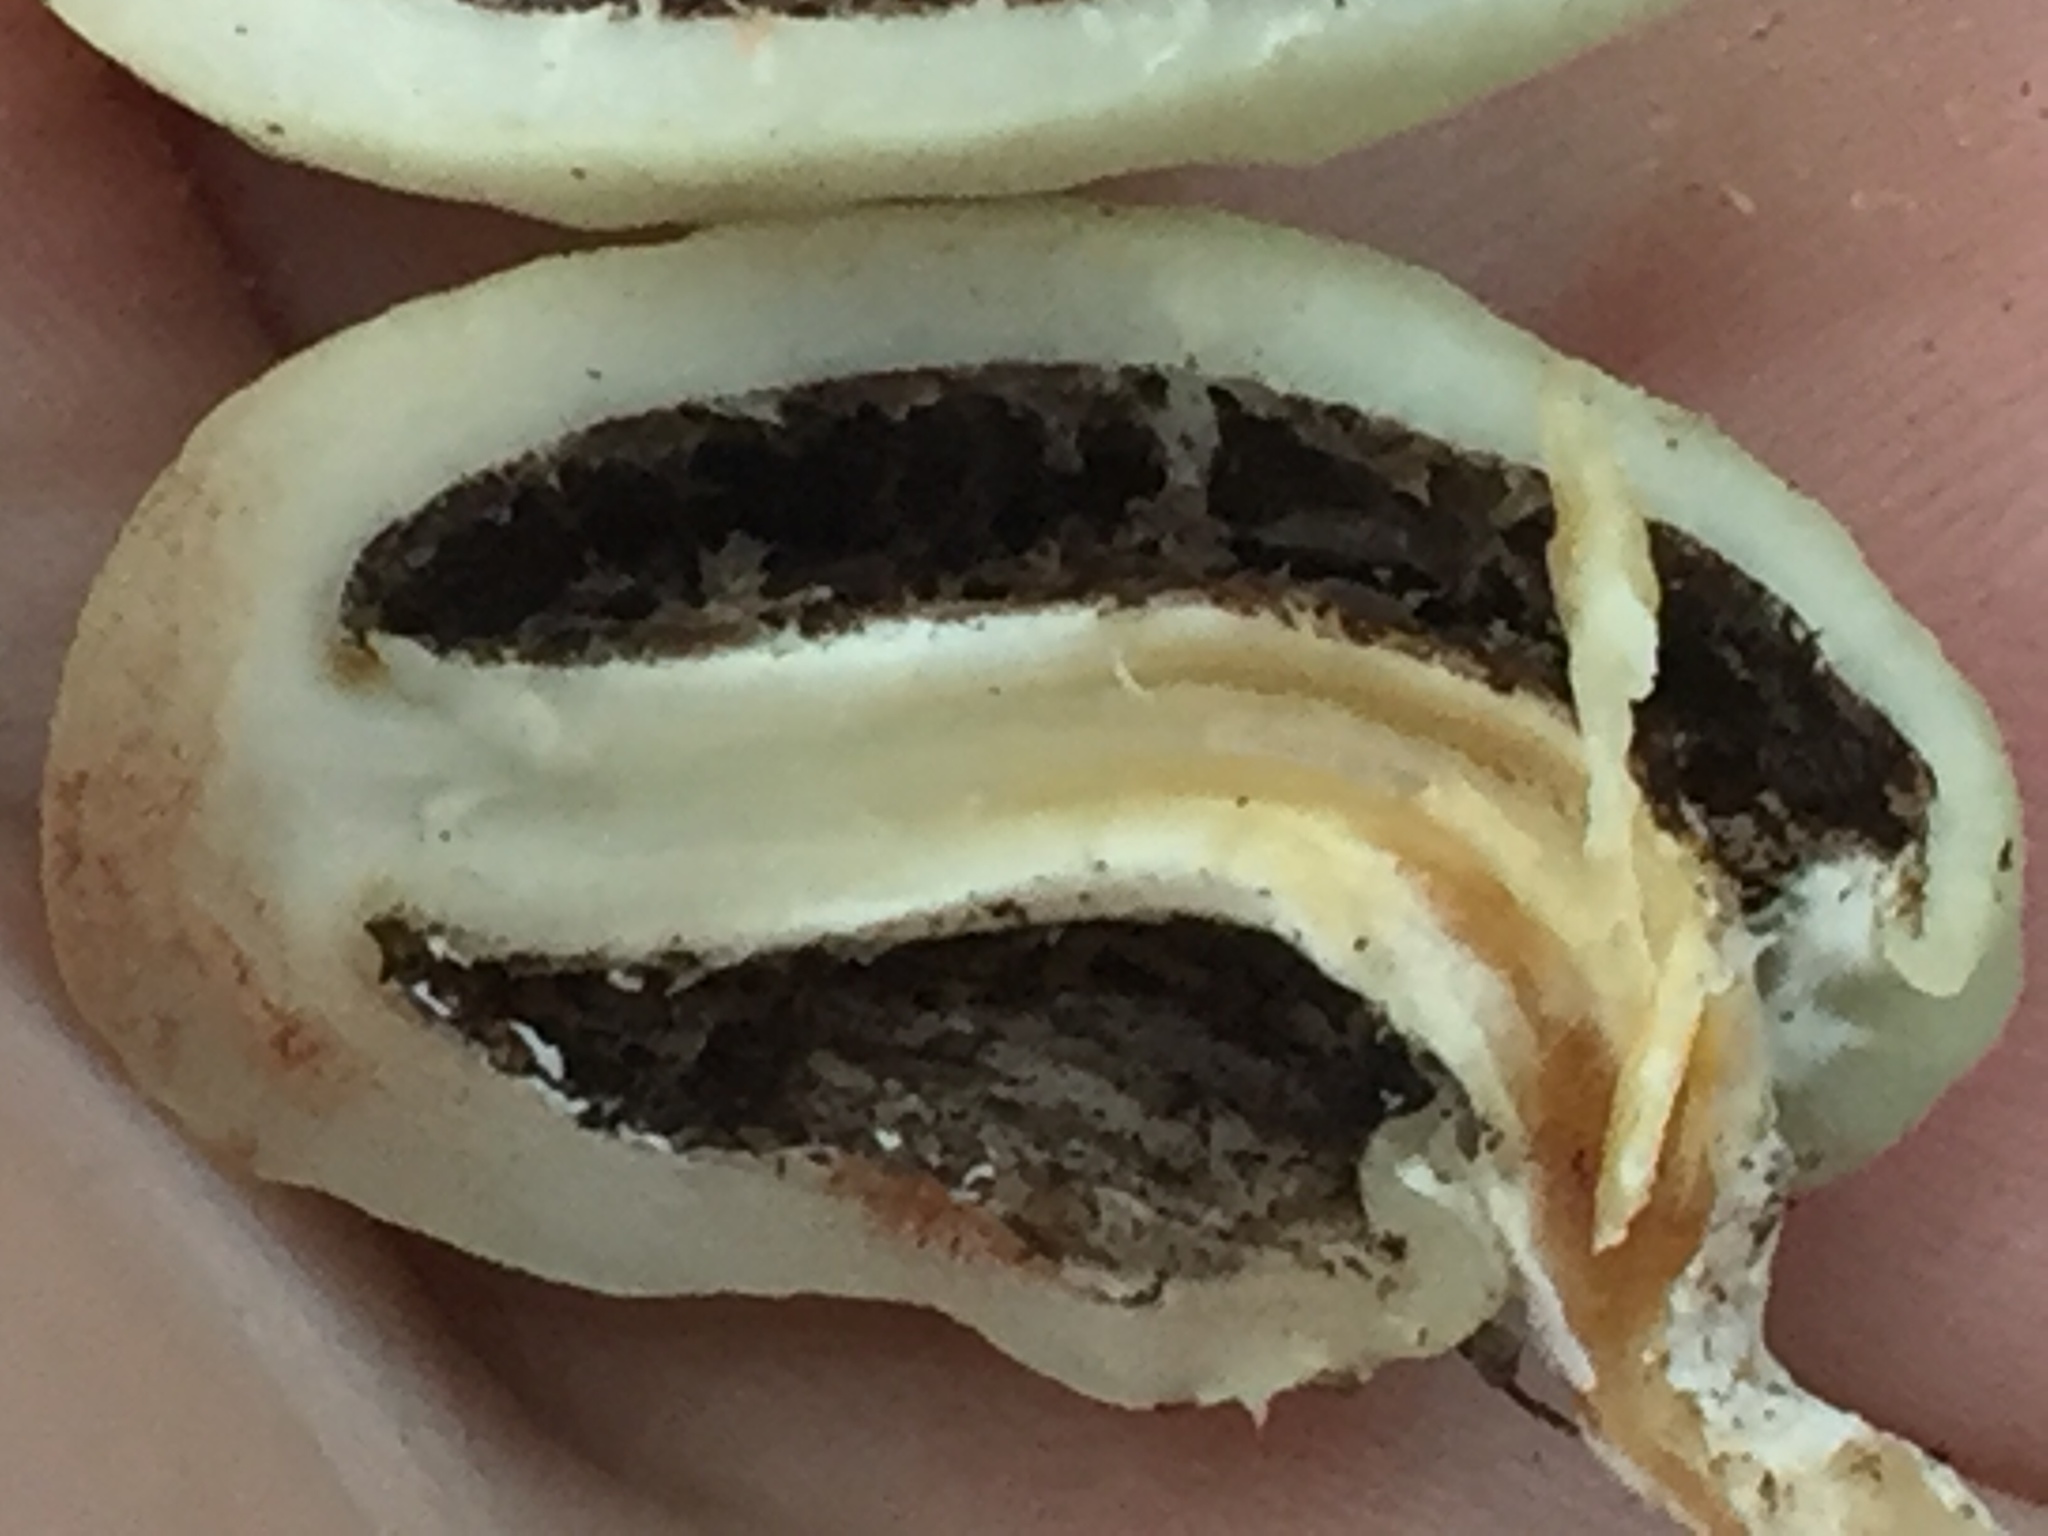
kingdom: Fungi
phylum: Basidiomycota
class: Agaricomycetes
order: Agaricales
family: Hymenogastraceae
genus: Psilocybe
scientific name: Psilocybe weraroa
